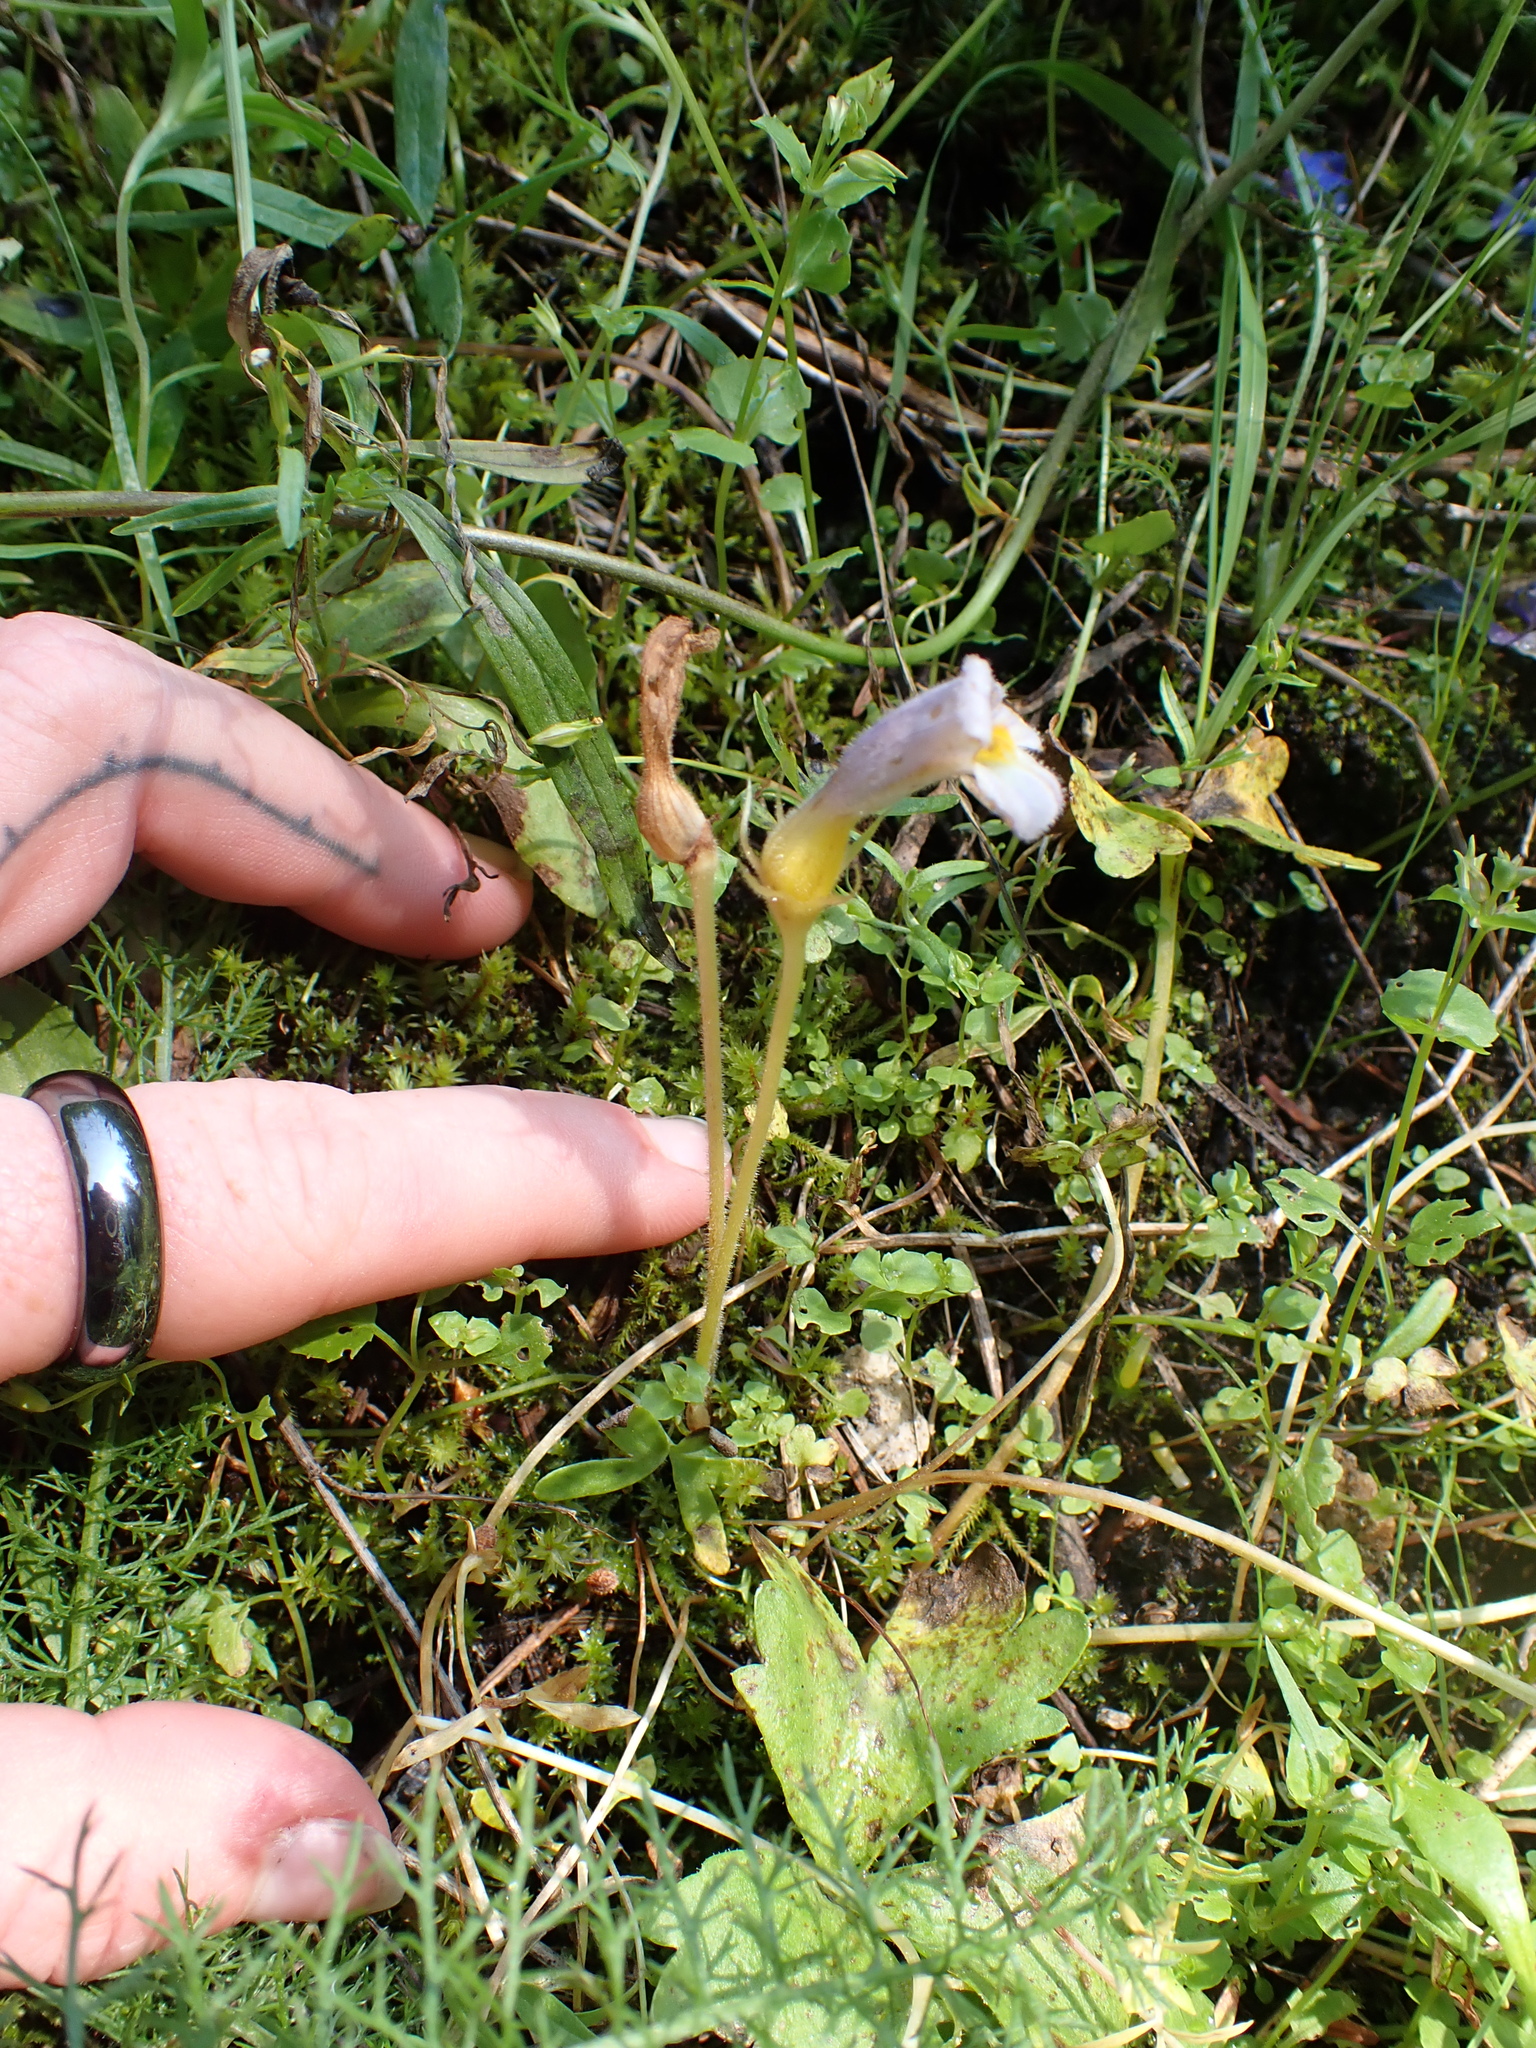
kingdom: Plantae
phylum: Tracheophyta
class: Magnoliopsida
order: Lamiales
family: Orobanchaceae
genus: Aphyllon
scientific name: Aphyllon uniflorum
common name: One-flowered broomrape
